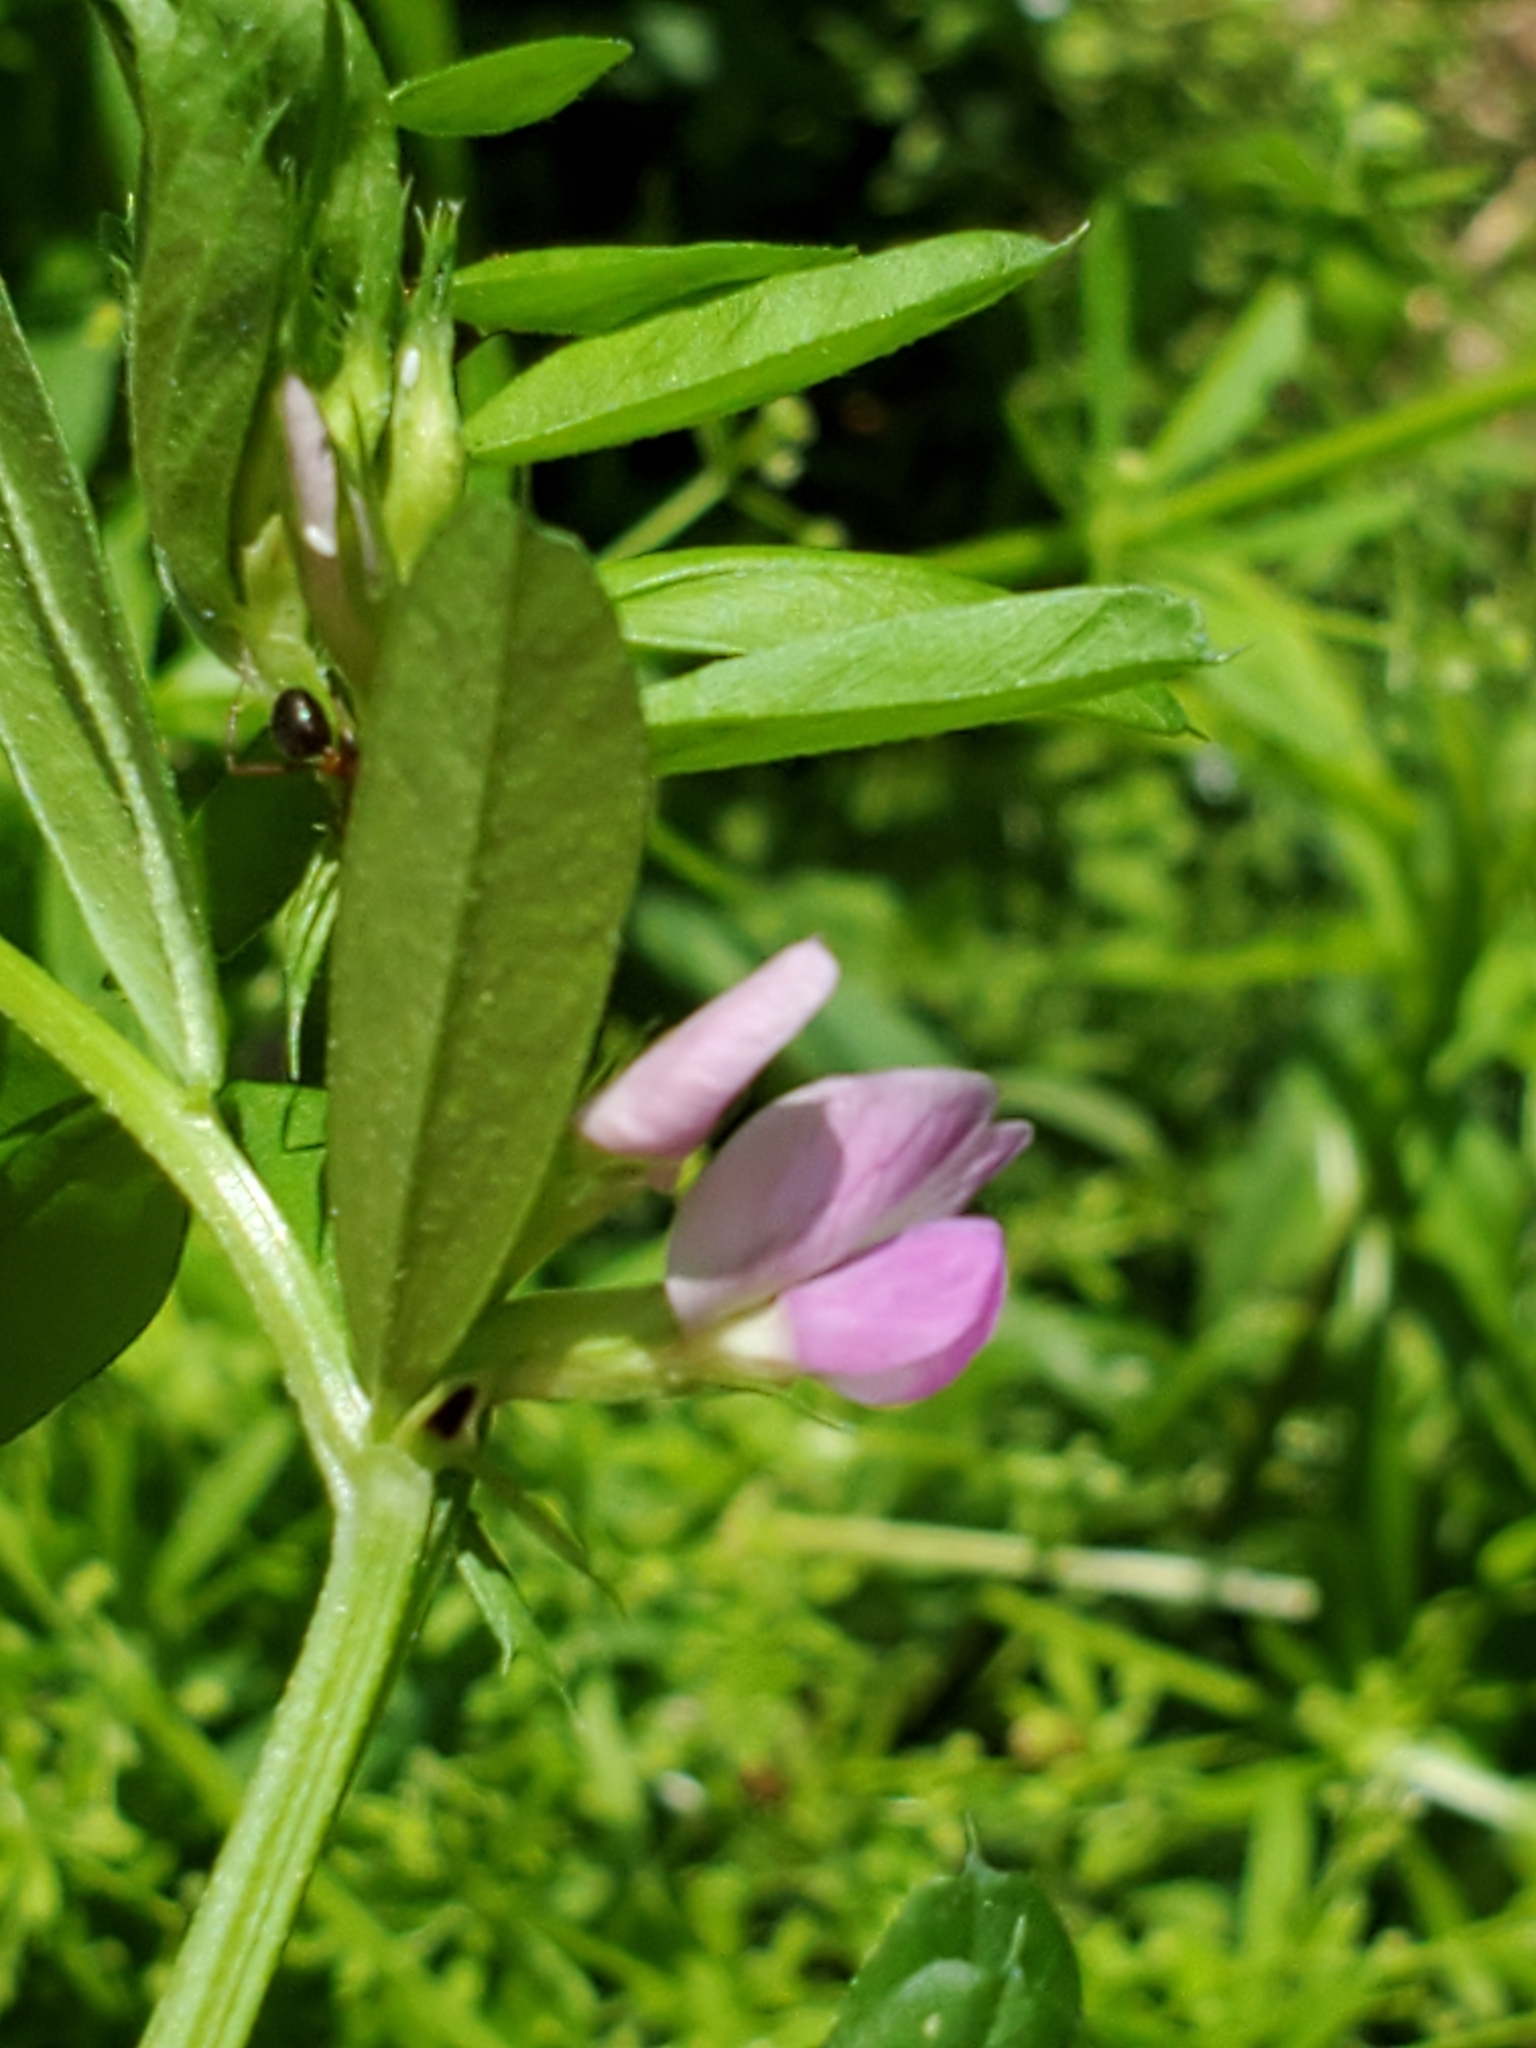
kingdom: Plantae
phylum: Tracheophyta
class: Magnoliopsida
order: Fabales
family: Fabaceae
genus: Vicia
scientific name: Vicia sativa
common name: Garden vetch
